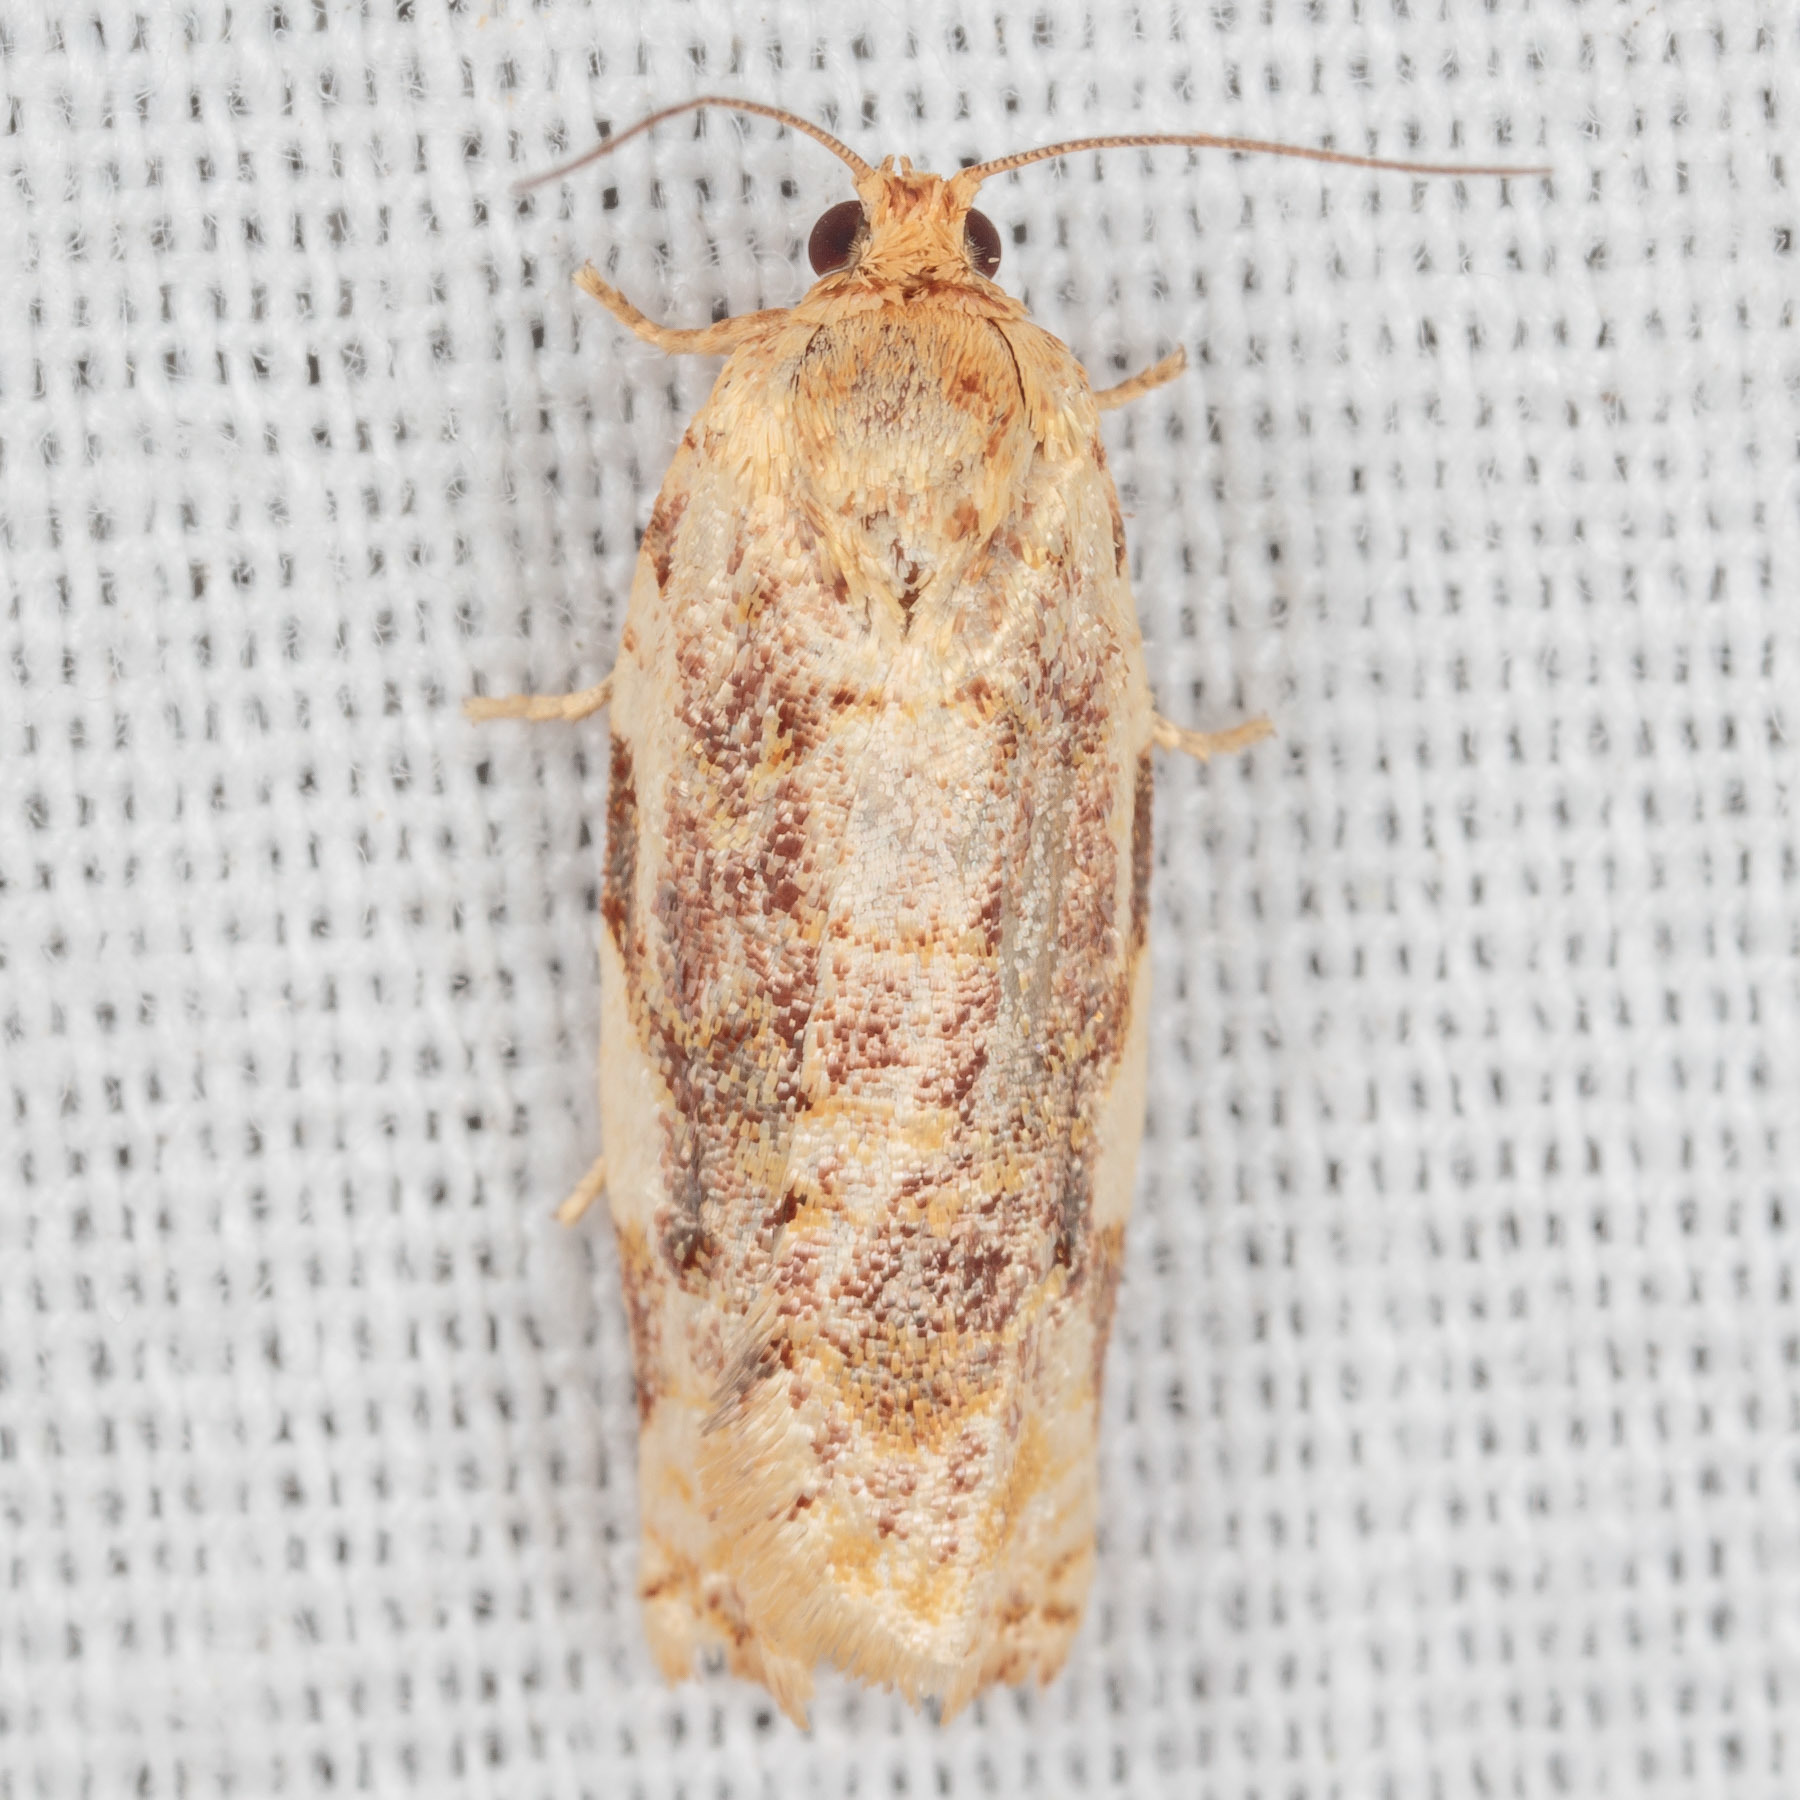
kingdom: Animalia
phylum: Arthropoda
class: Insecta
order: Lepidoptera
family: Tortricidae
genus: Archips
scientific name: Archips argyrospila
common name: Fruit-tree leafroller moth
